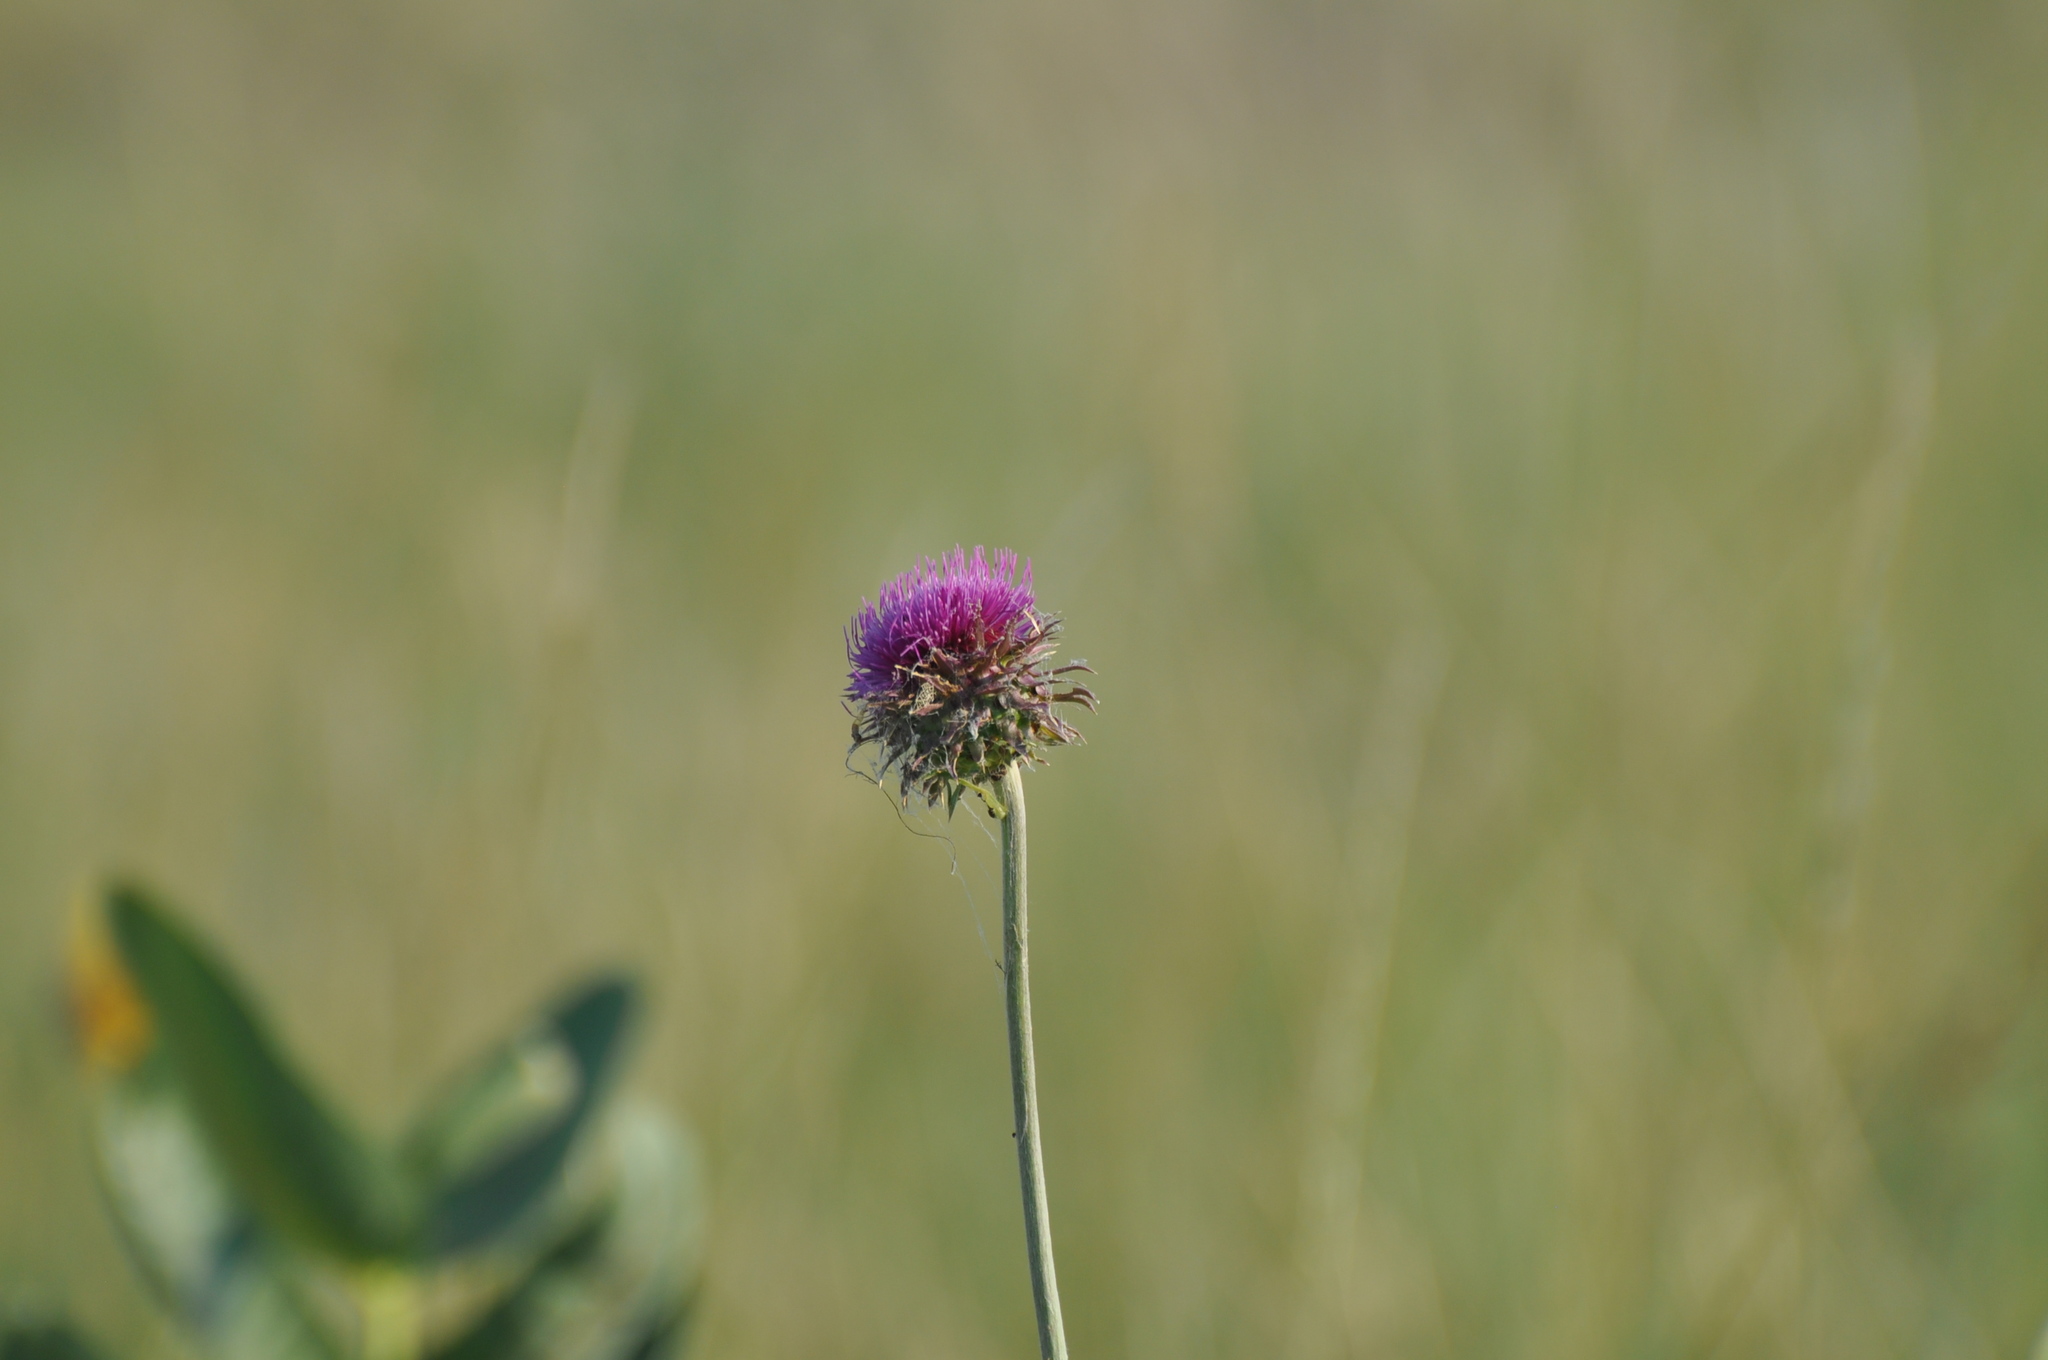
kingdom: Plantae
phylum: Tracheophyta
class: Magnoliopsida
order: Asterales
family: Asteraceae
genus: Carduus
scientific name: Carduus nutans
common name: Musk thistle
